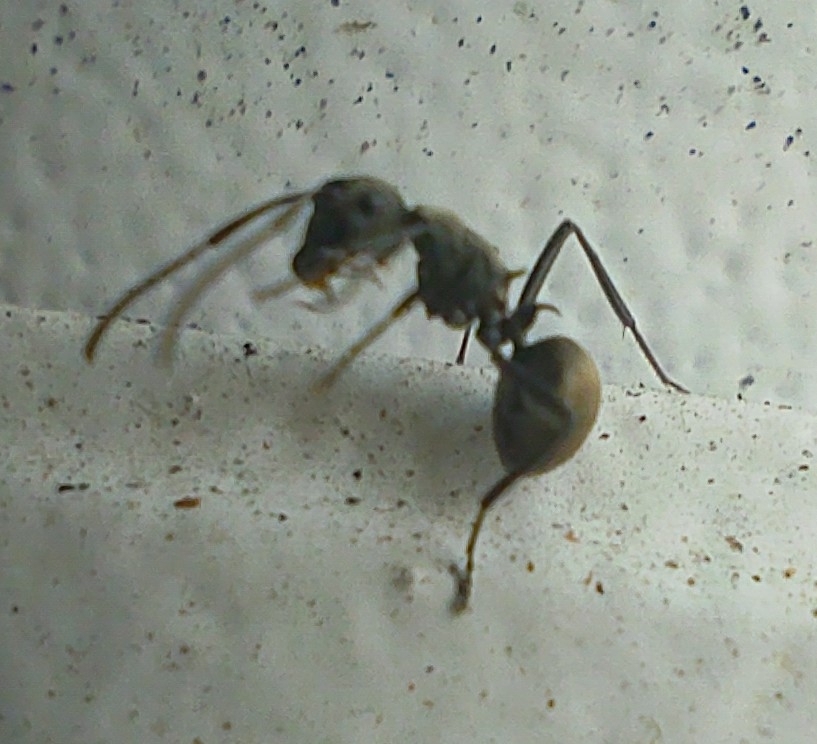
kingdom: Animalia
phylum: Arthropoda
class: Insecta
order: Hymenoptera
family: Formicidae
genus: Polyrhachis
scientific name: Polyrhachis dives
